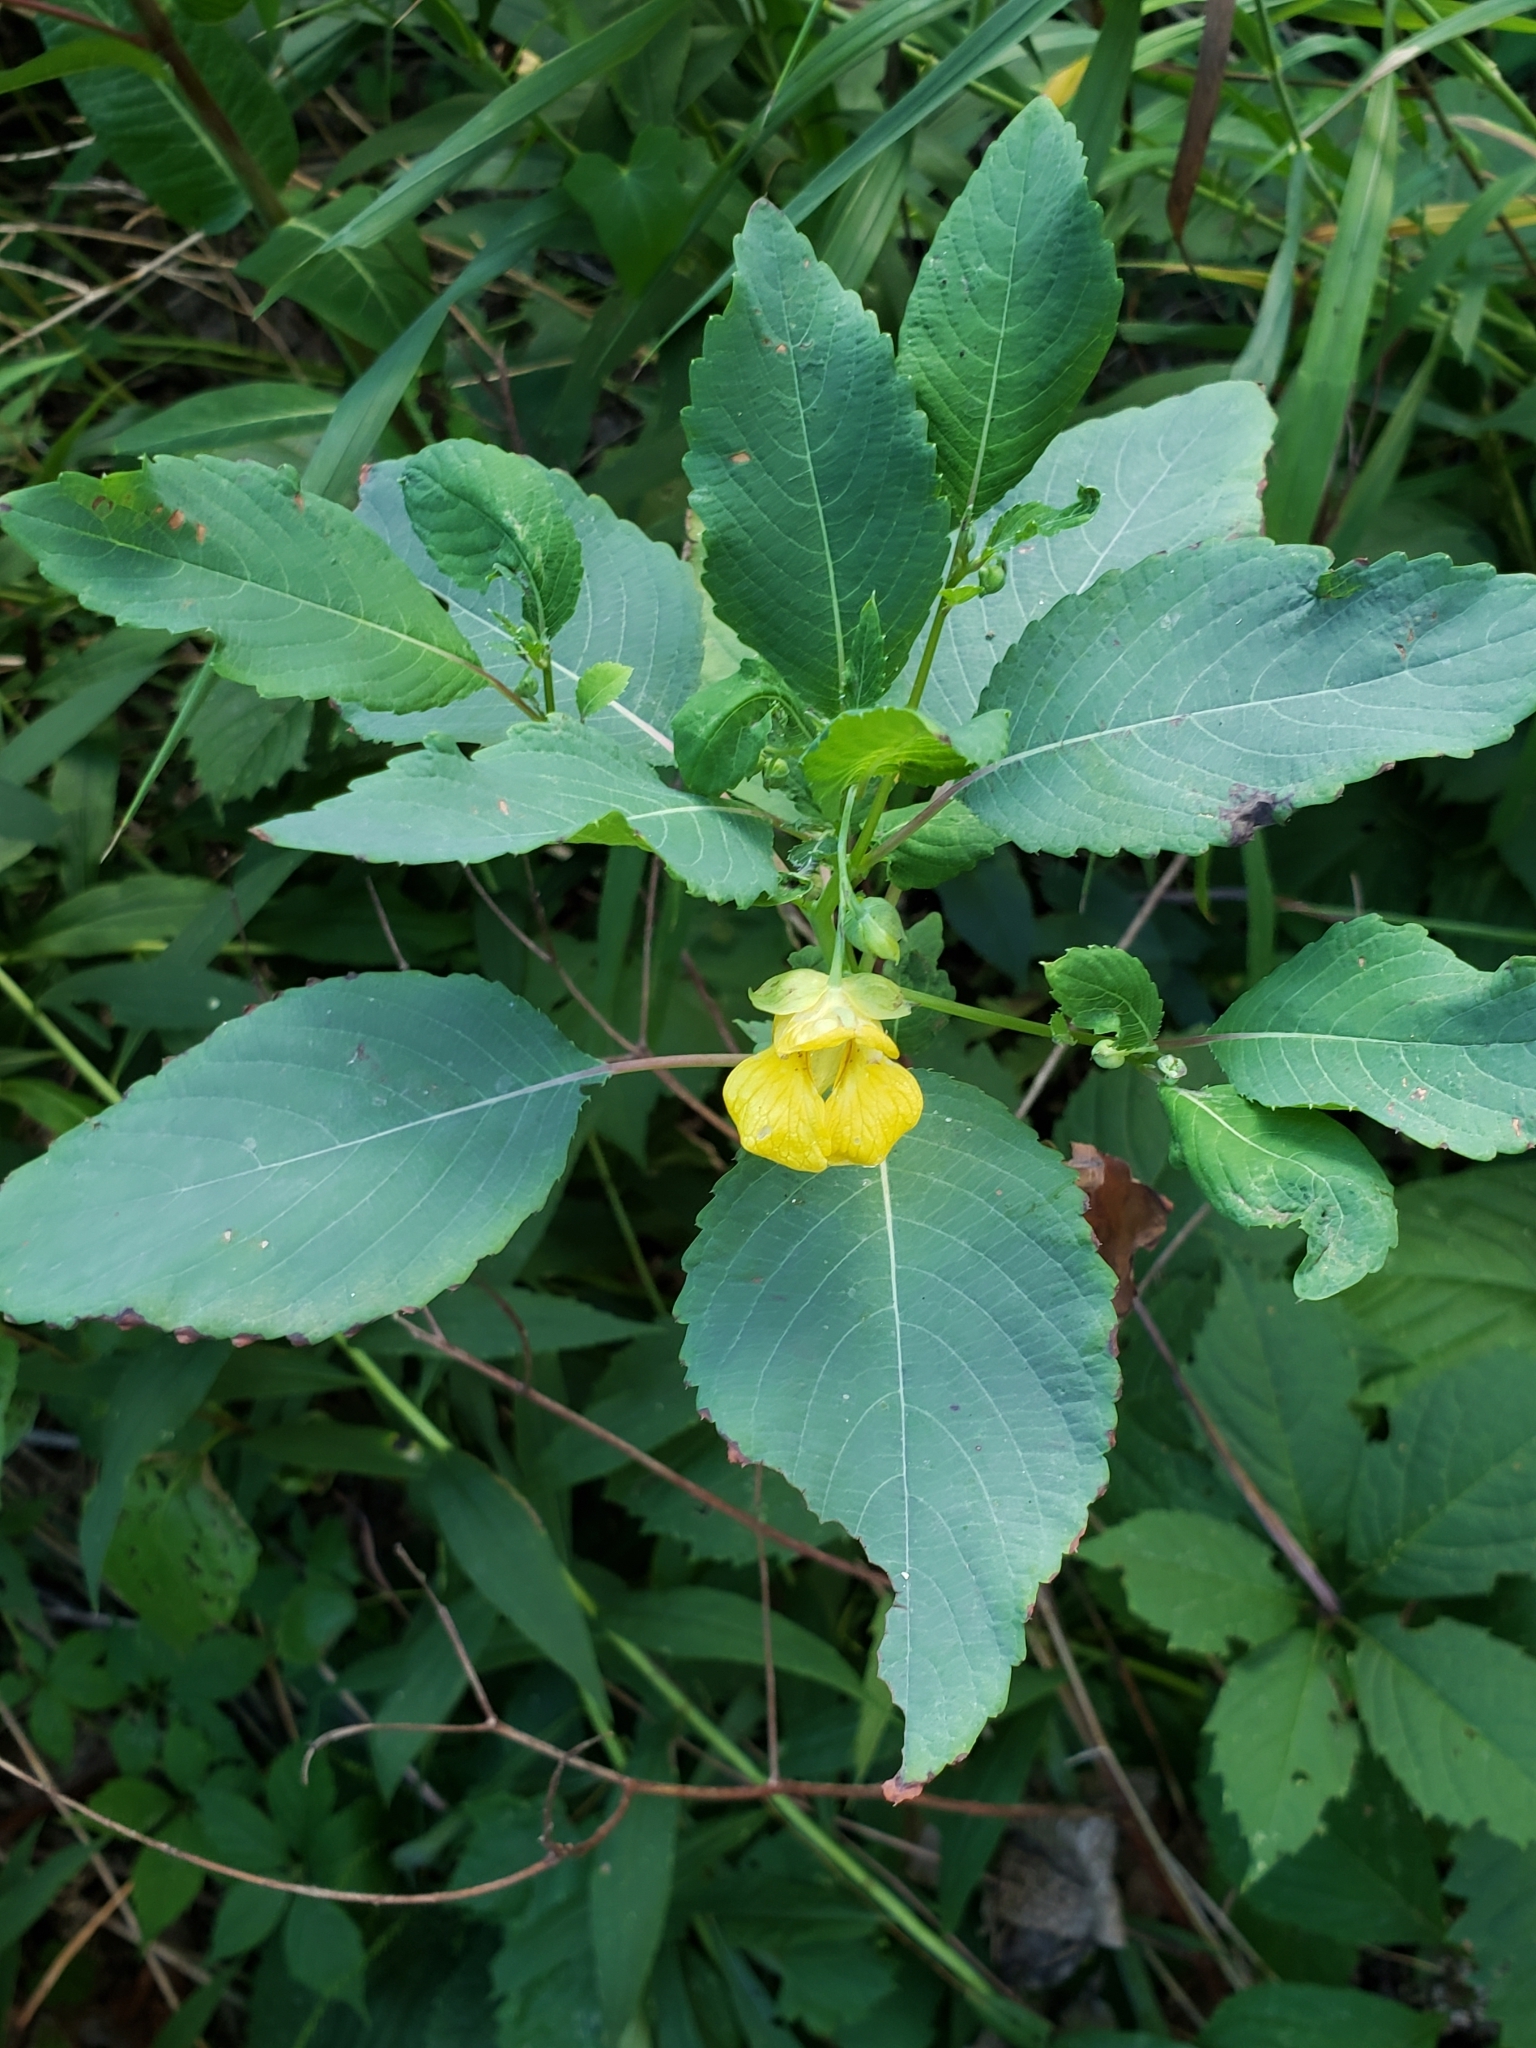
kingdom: Plantae
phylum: Tracheophyta
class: Magnoliopsida
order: Ericales
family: Balsaminaceae
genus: Impatiens
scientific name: Impatiens pallida
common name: Pale snapweed
